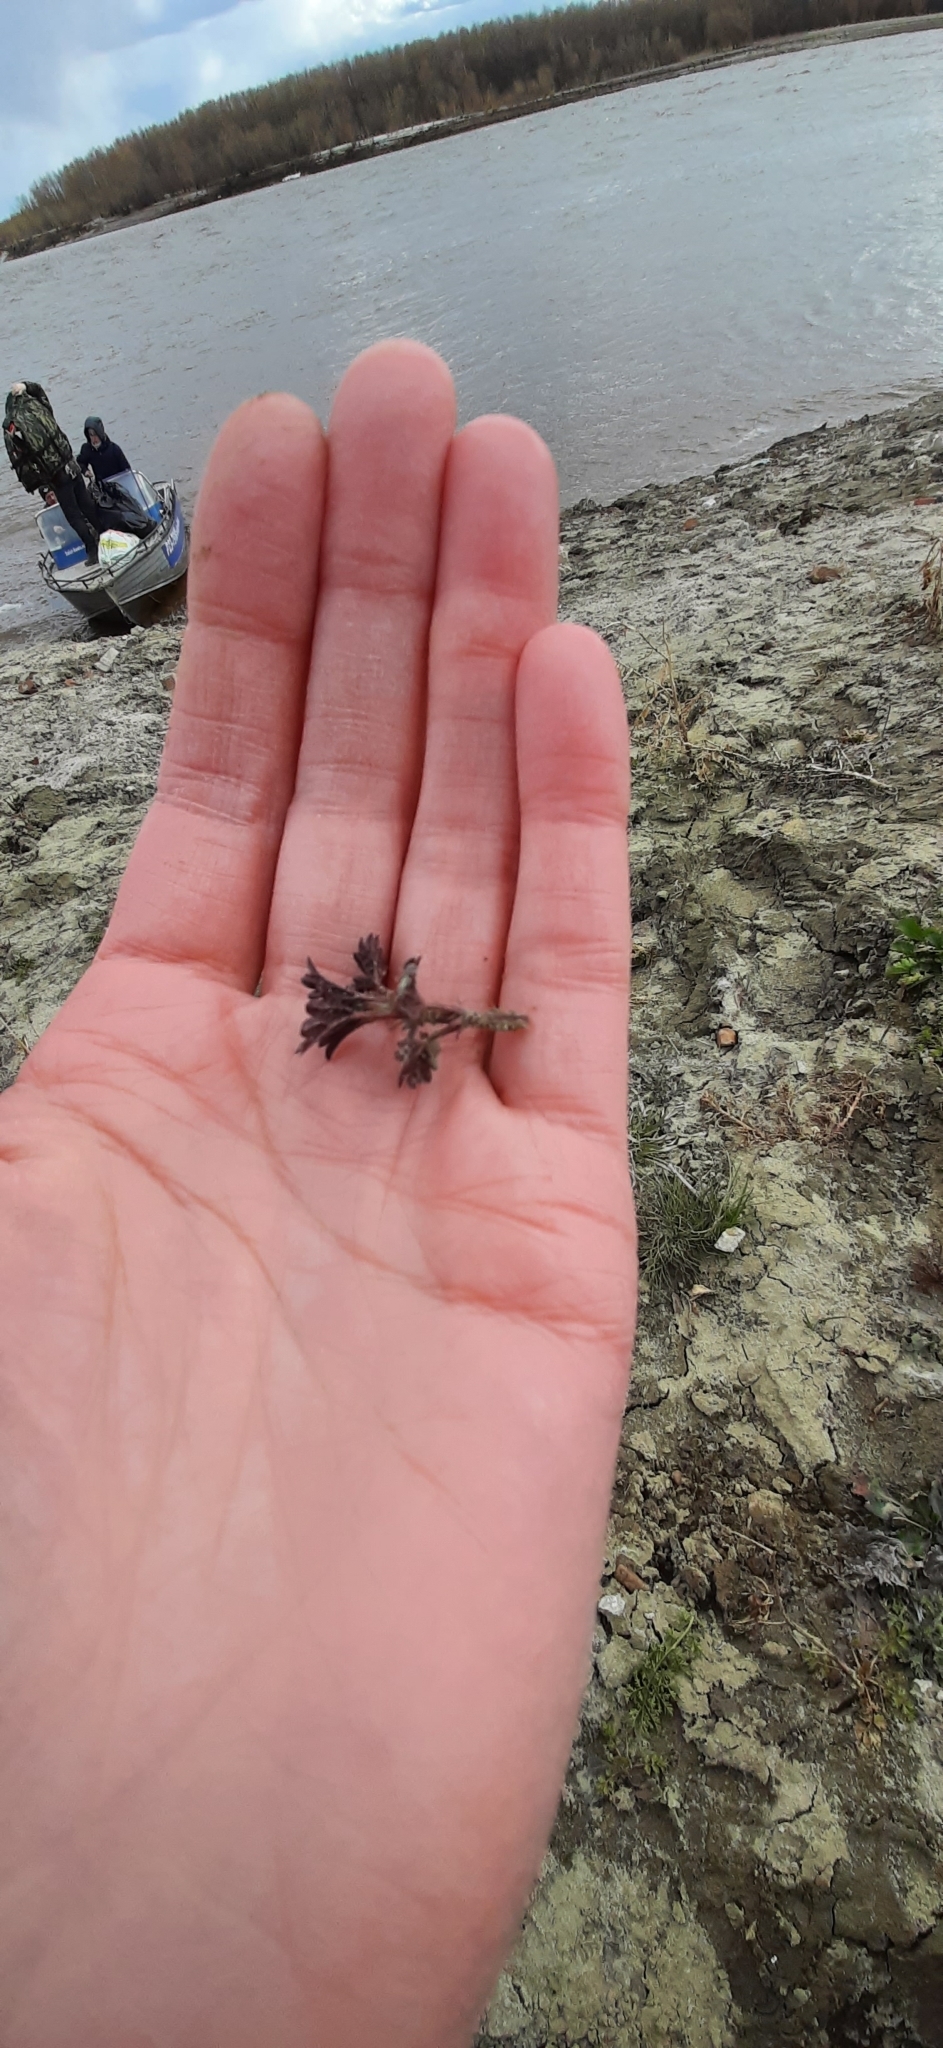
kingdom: Plantae
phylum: Tracheophyta
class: Magnoliopsida
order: Rosales
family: Urticaceae
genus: Urtica
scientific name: Urtica dioica
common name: Common nettle
